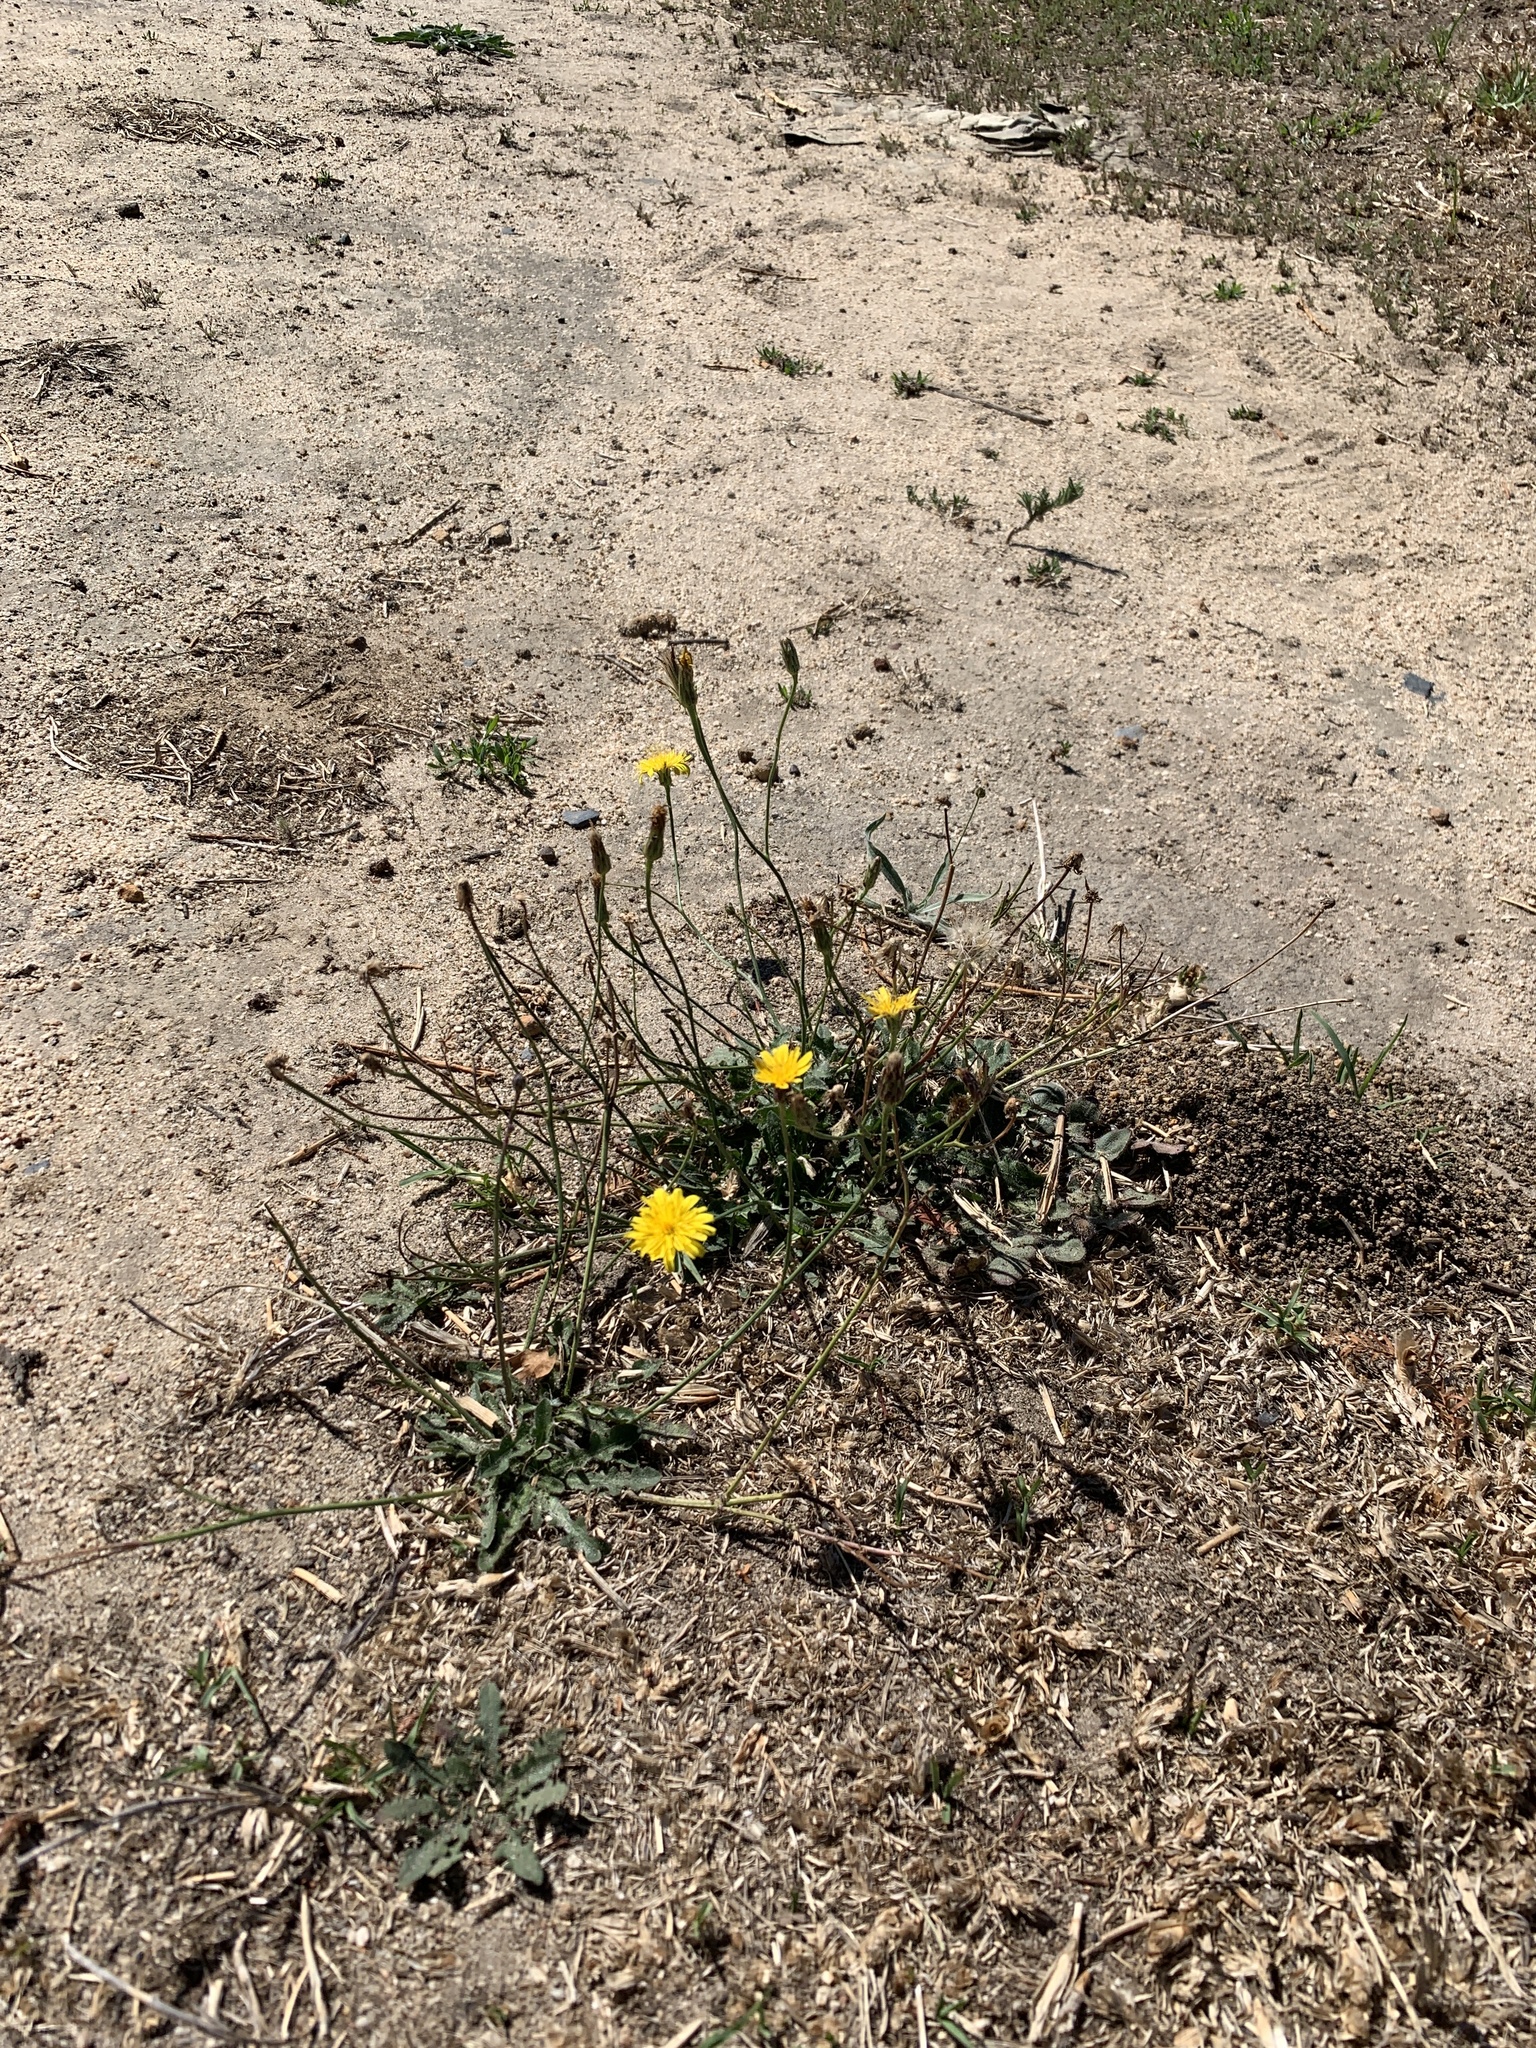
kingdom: Plantae
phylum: Tracheophyta
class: Magnoliopsida
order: Asterales
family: Asteraceae
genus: Hypochaeris
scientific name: Hypochaeris radicata
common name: Flatweed
